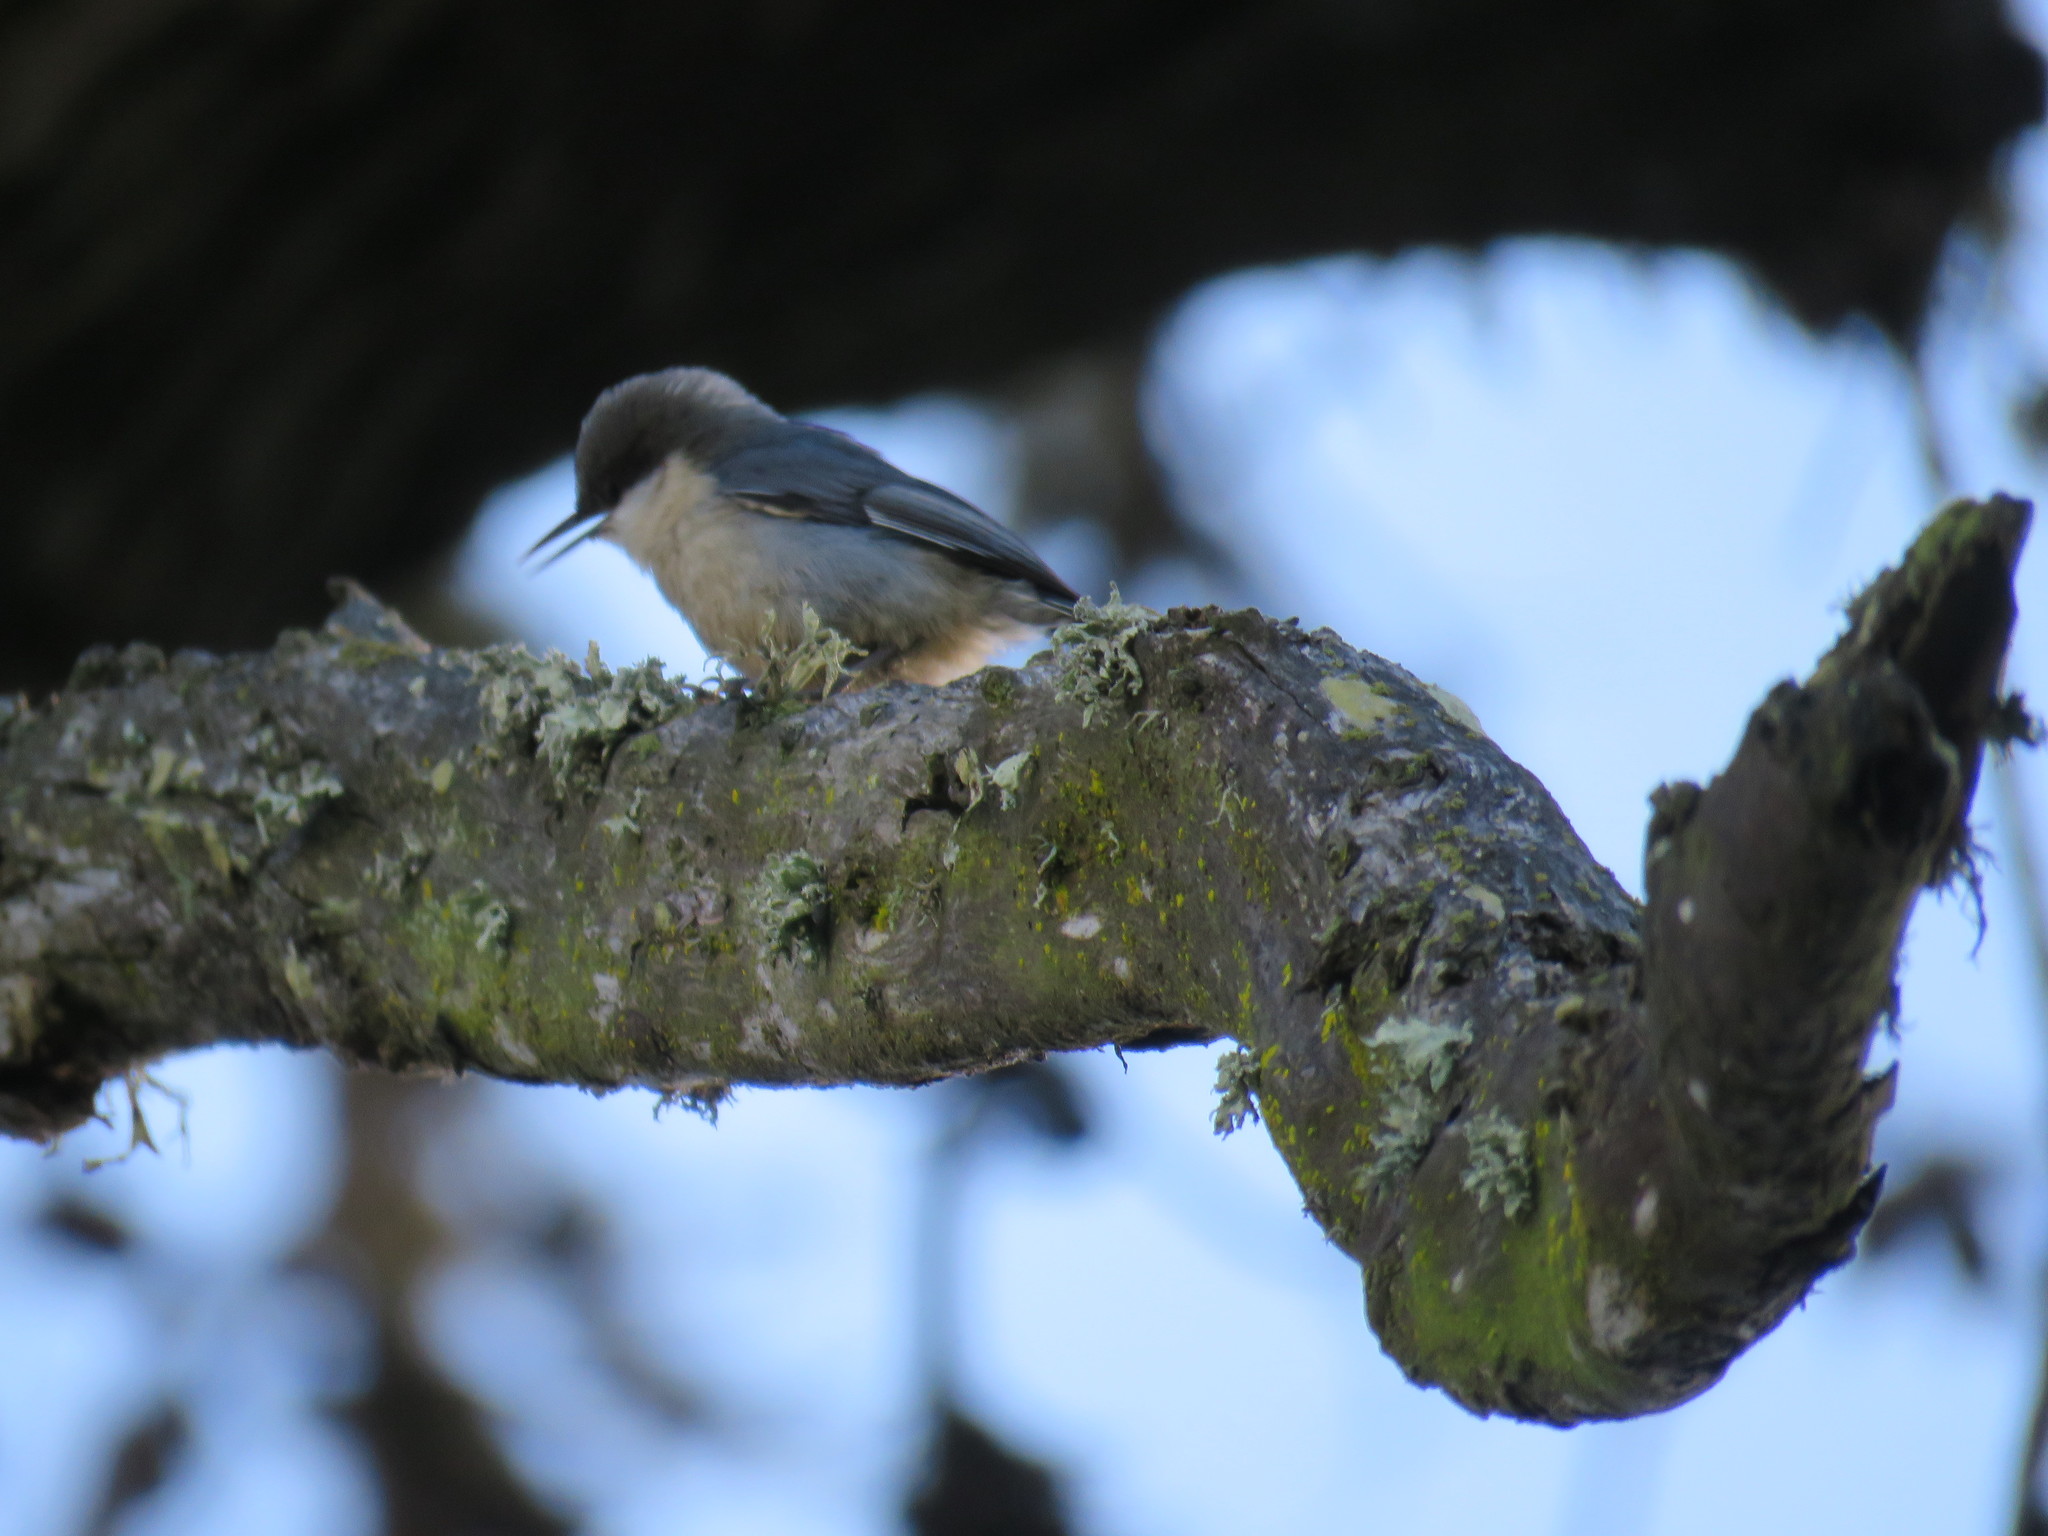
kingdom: Animalia
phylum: Chordata
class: Aves
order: Passeriformes
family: Sittidae
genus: Sitta
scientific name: Sitta pygmaea
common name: Pygmy nuthatch
